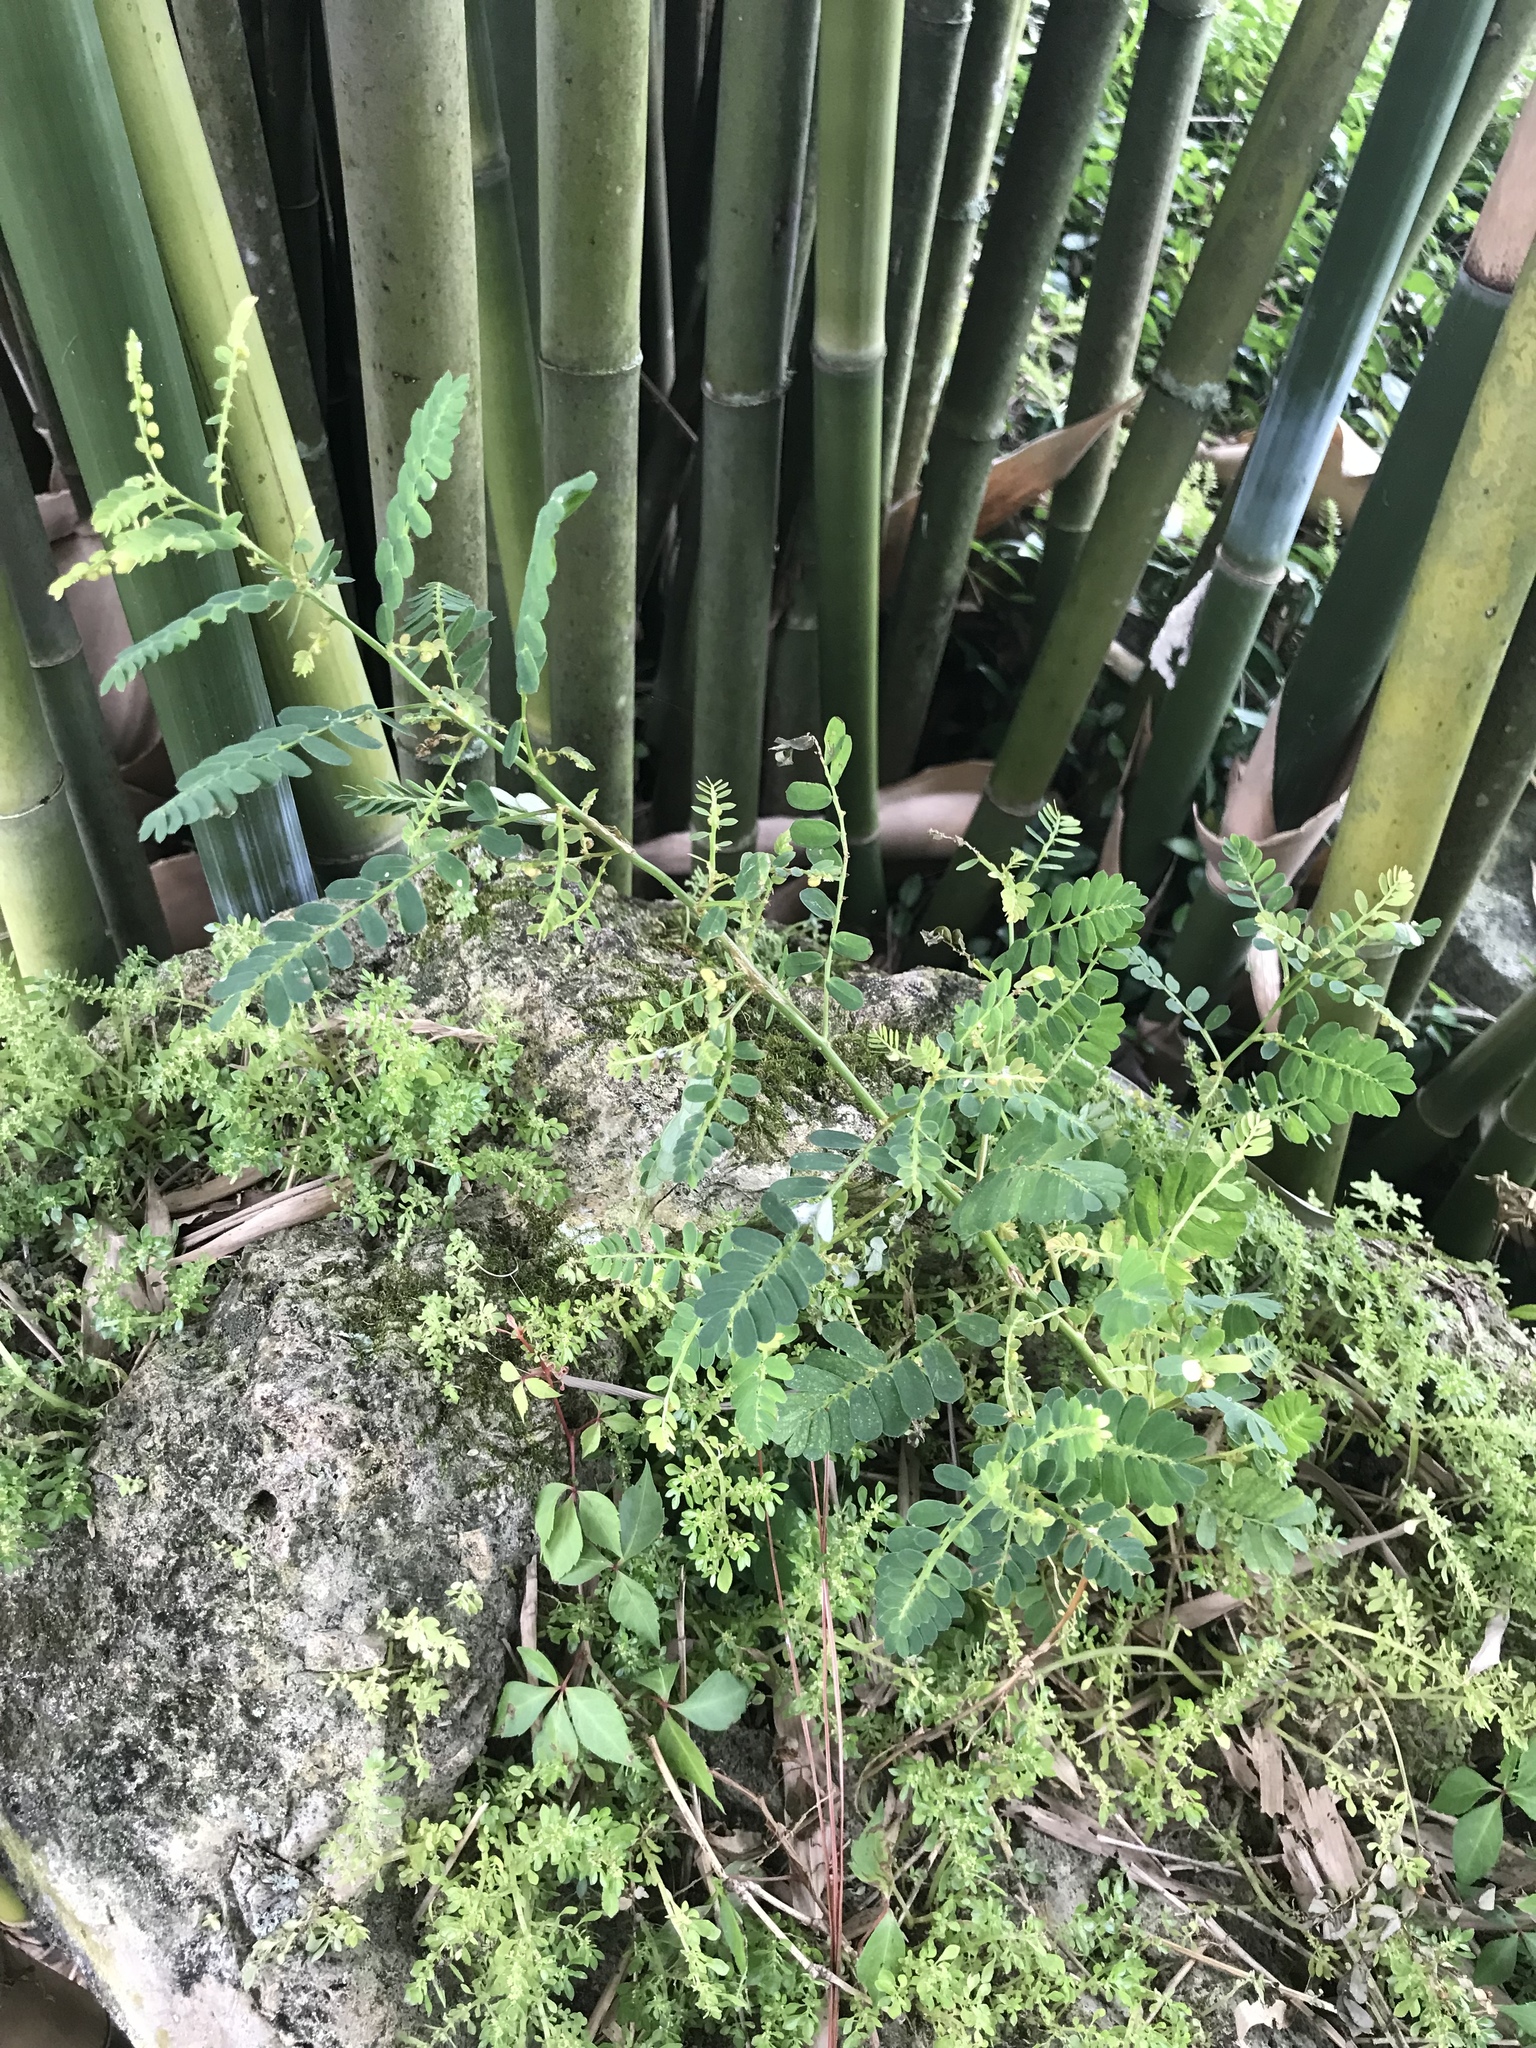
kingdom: Plantae
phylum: Tracheophyta
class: Magnoliopsida
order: Malpighiales
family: Phyllanthaceae
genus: Phyllanthus
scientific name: Phyllanthus urinaria
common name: Chamber bitter
